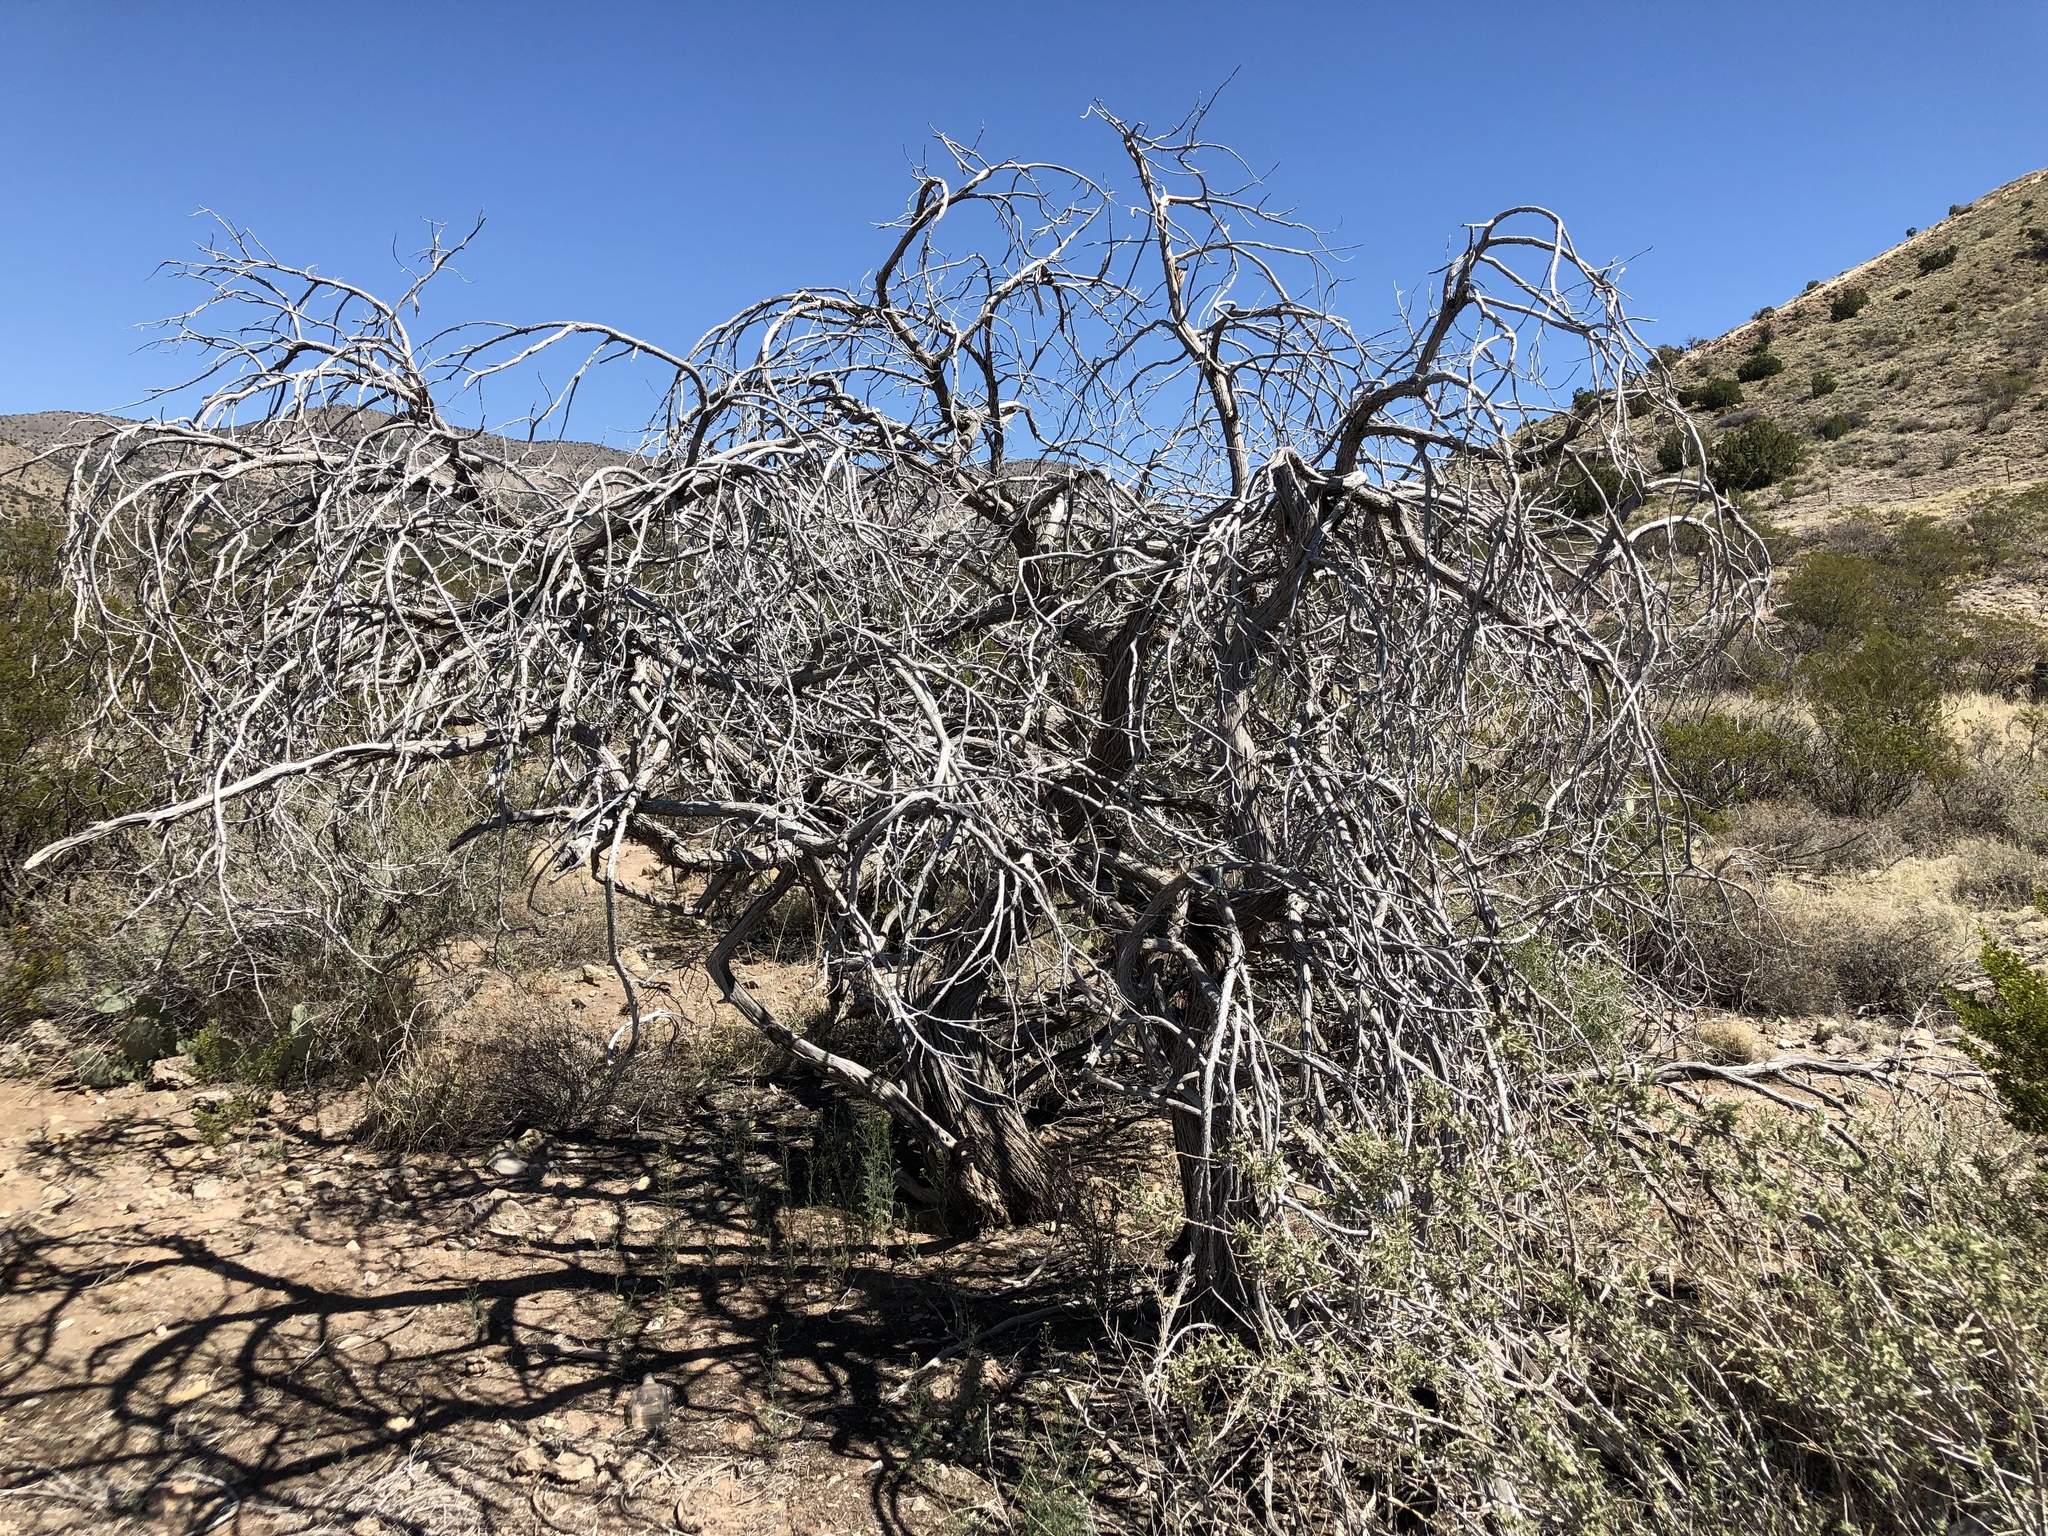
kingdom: Plantae
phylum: Tracheophyta
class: Pinopsida
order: Pinales
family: Cupressaceae
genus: Juniperus
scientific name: Juniperus monosperma
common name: One-seed juniper
